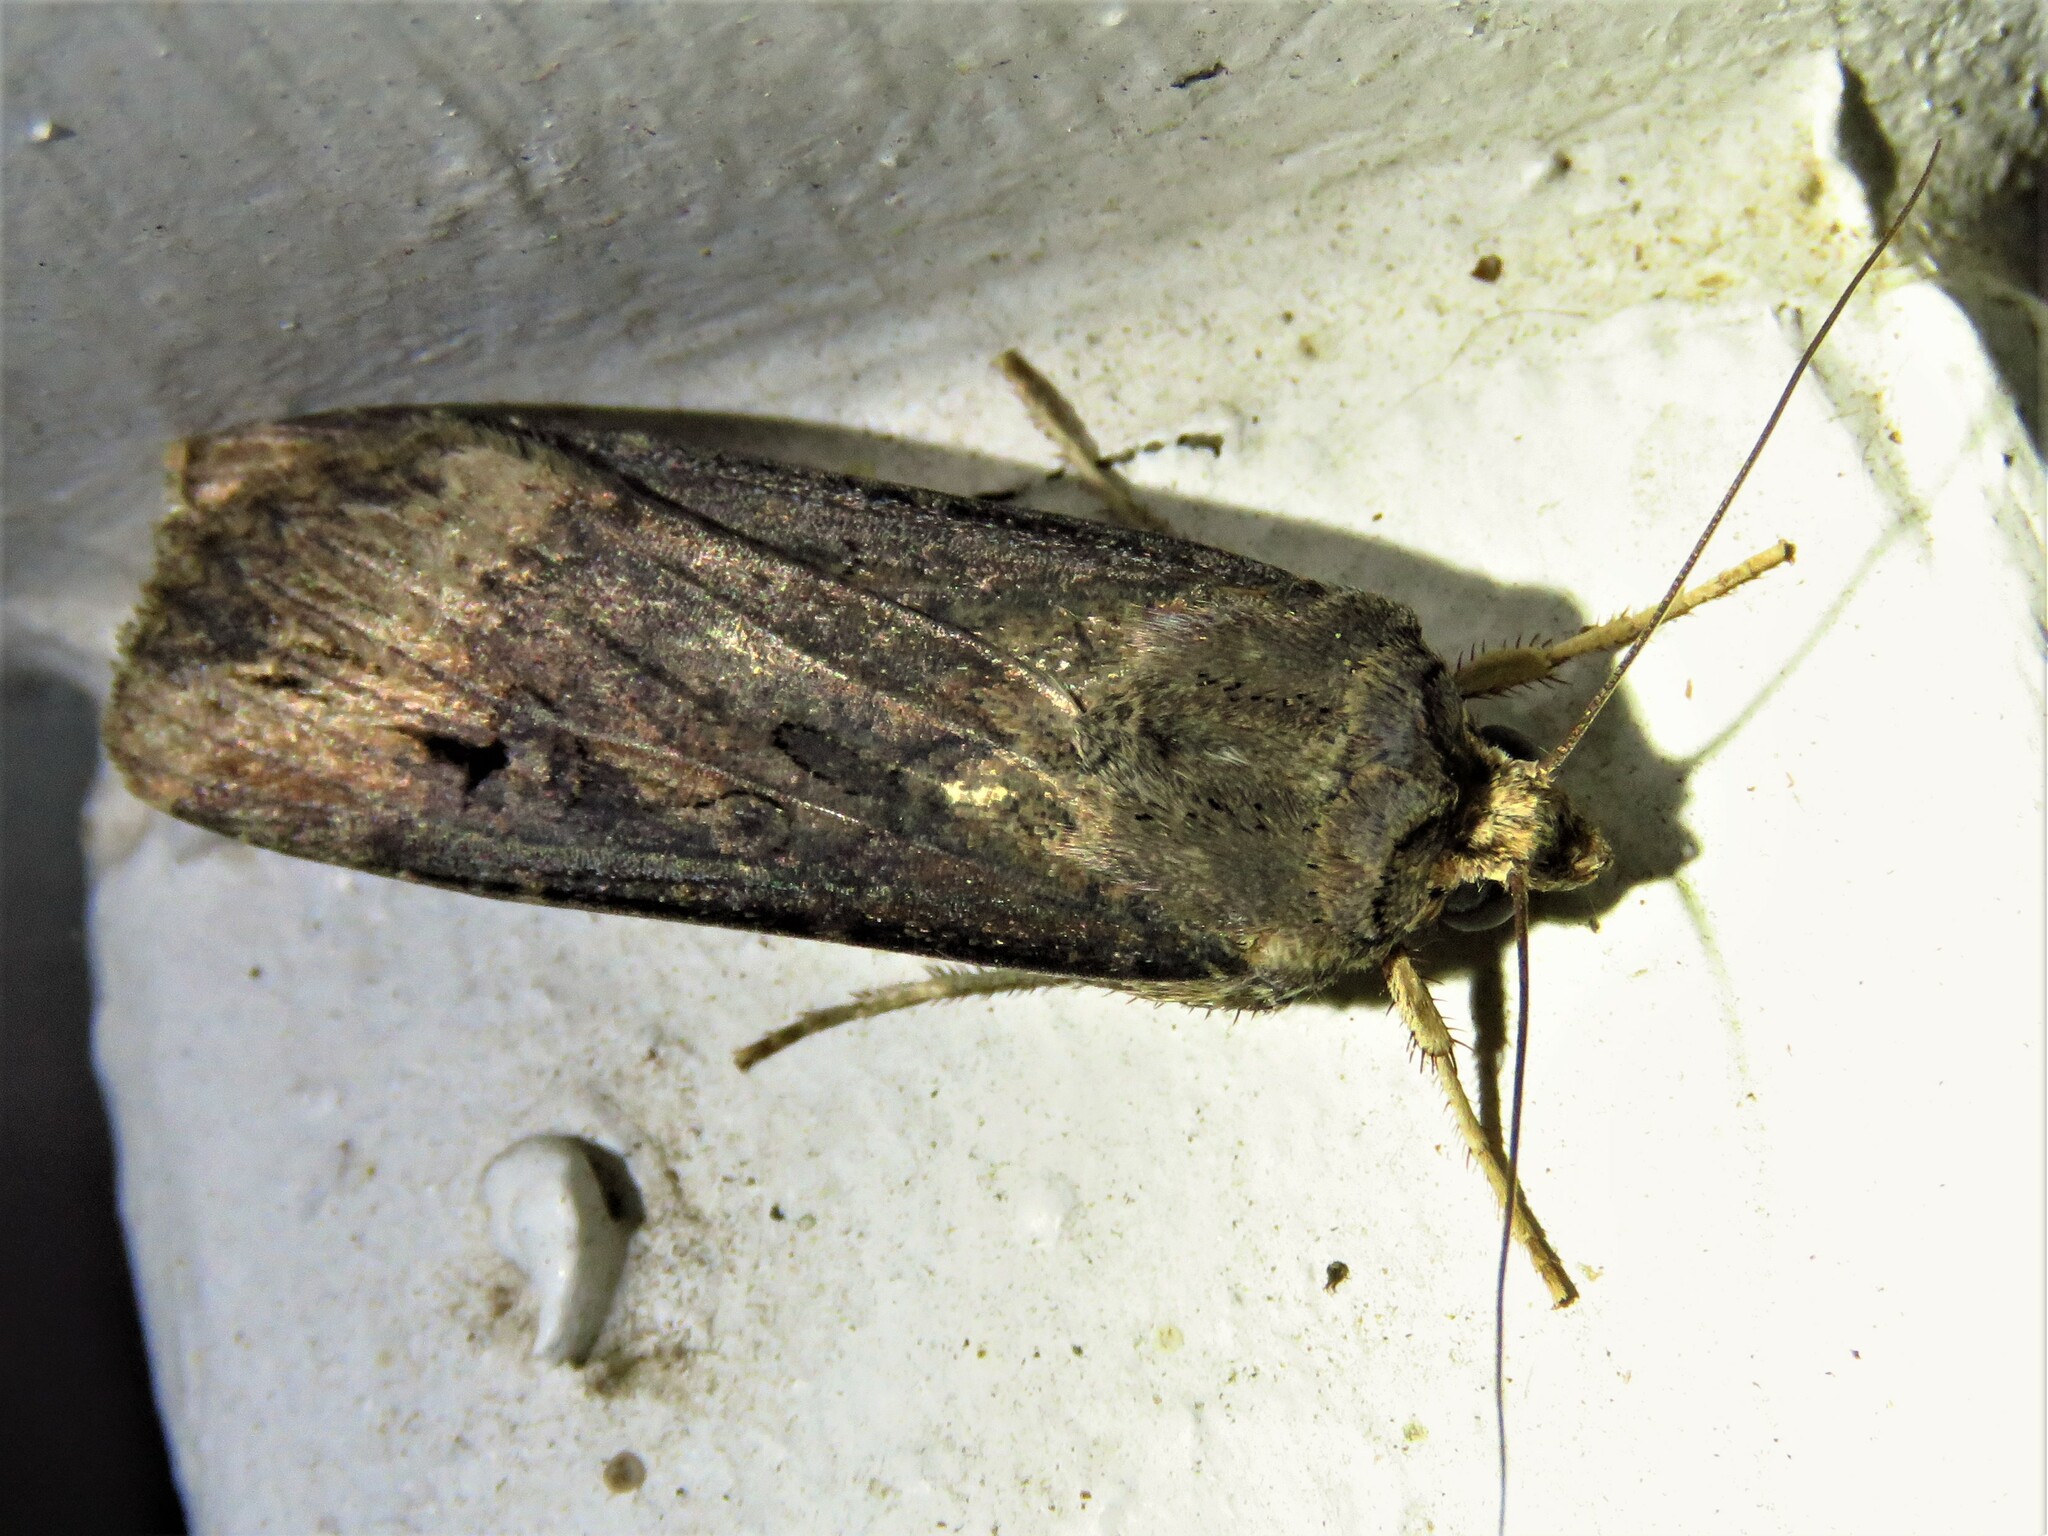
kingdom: Animalia
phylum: Arthropoda
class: Insecta
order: Lepidoptera
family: Noctuidae
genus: Agrotis
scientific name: Agrotis ipsilon
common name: Dark sword-grass
